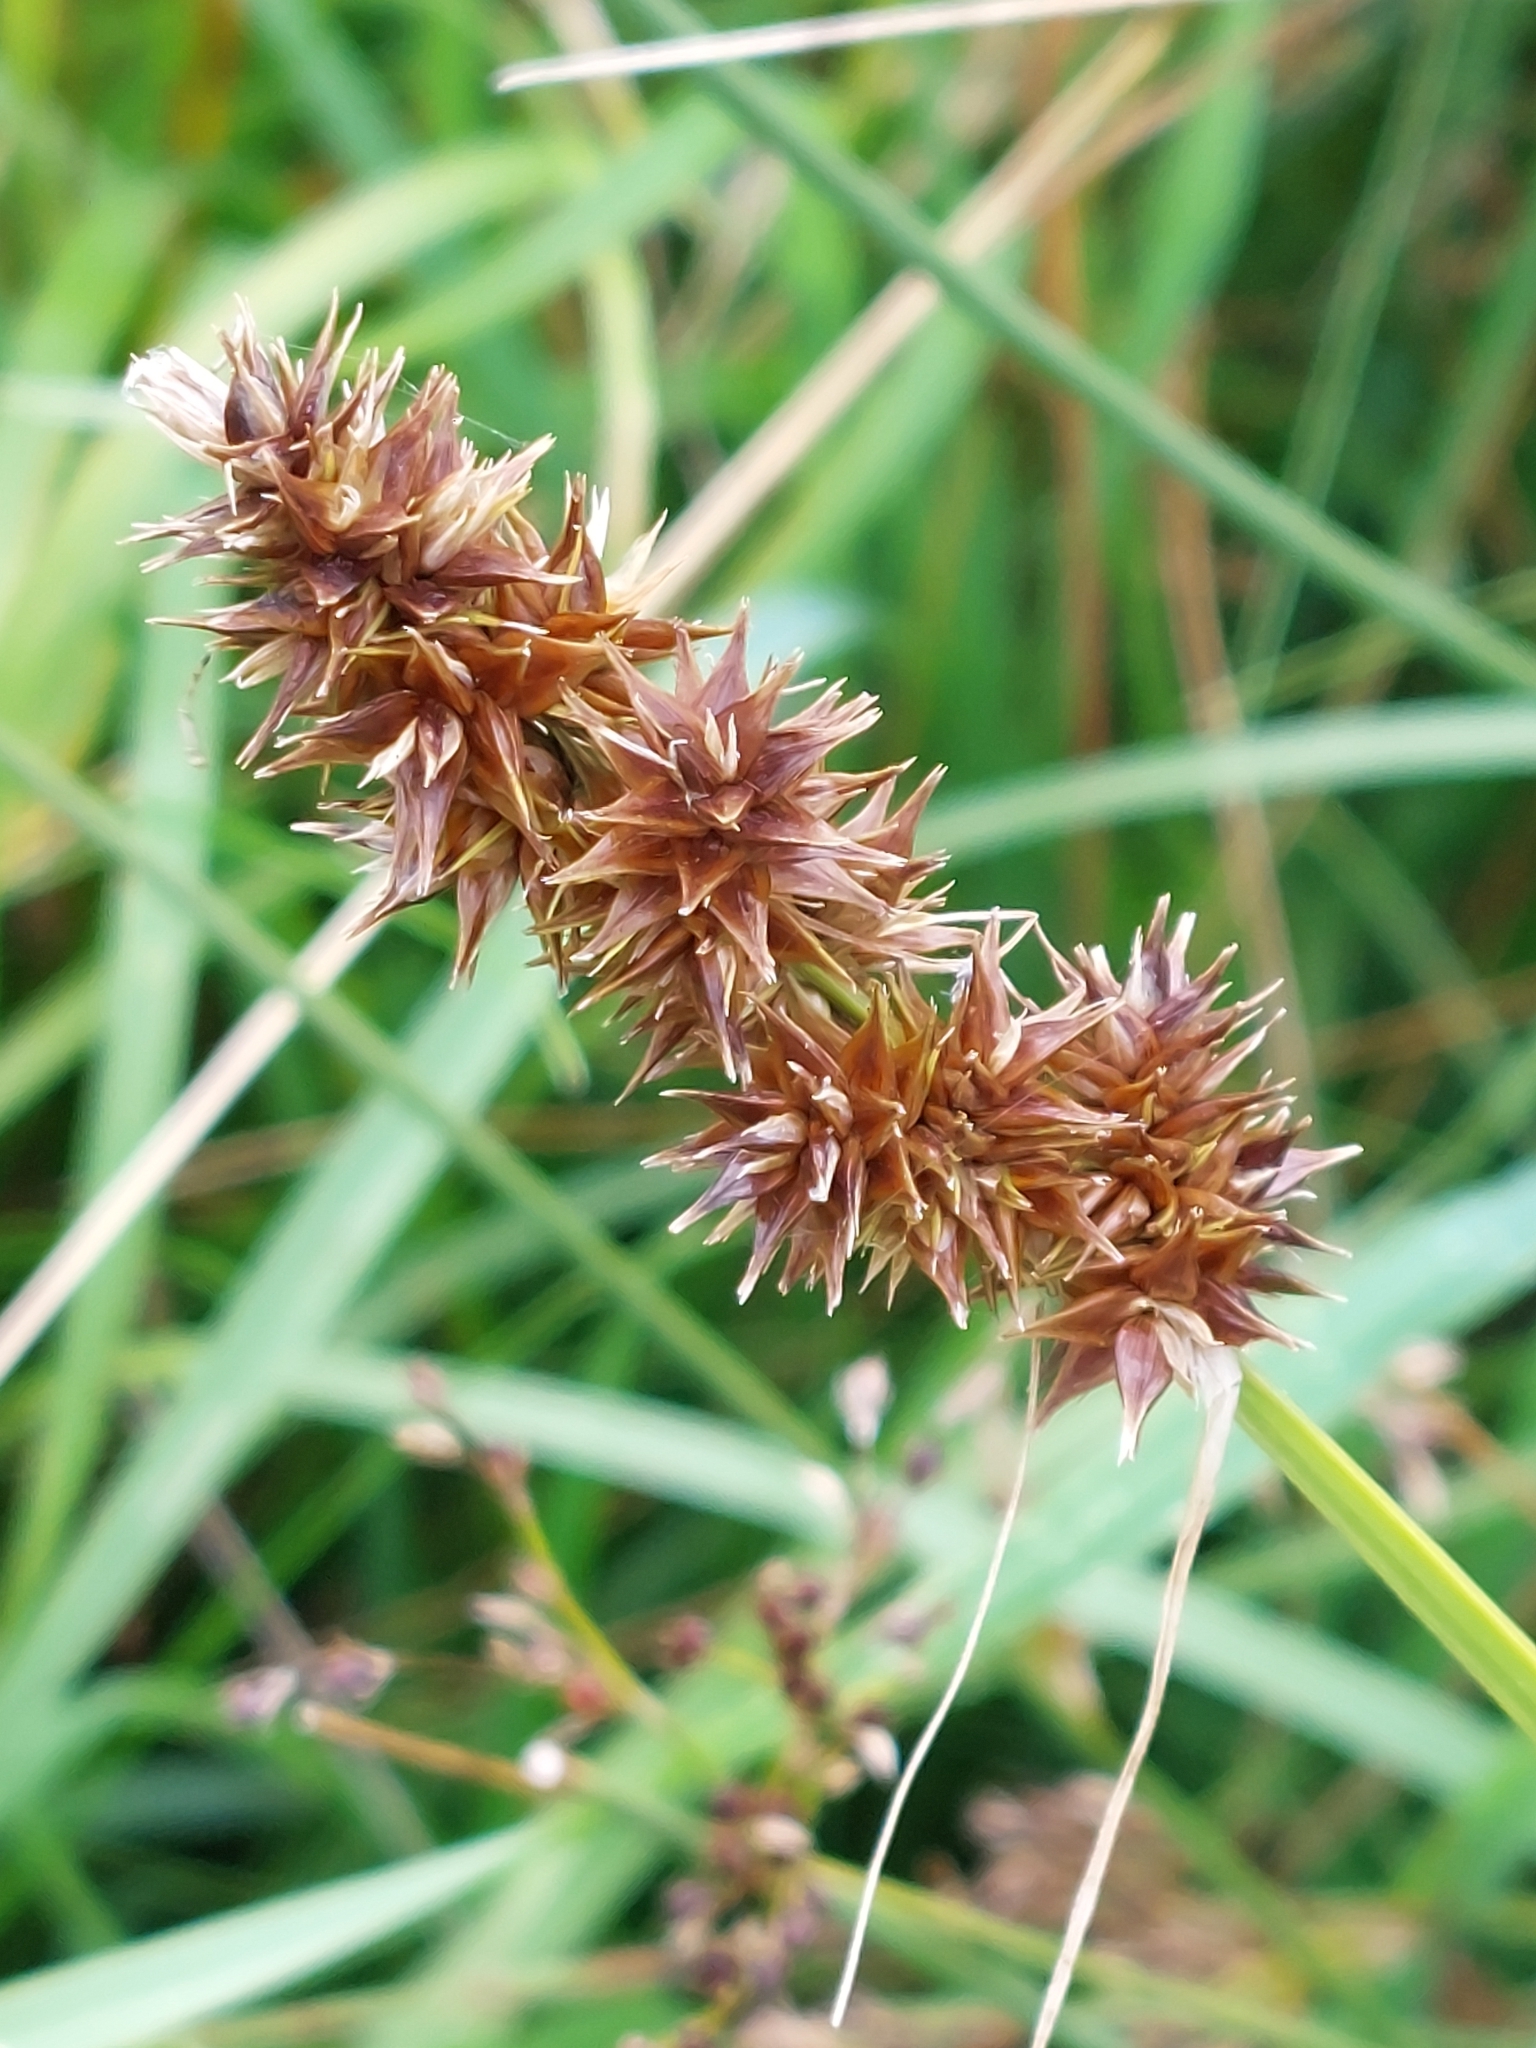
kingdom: Plantae
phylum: Tracheophyta
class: Liliopsida
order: Poales
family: Cyperaceae
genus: Carex
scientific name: Carex otrubae
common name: False fox-sedge
